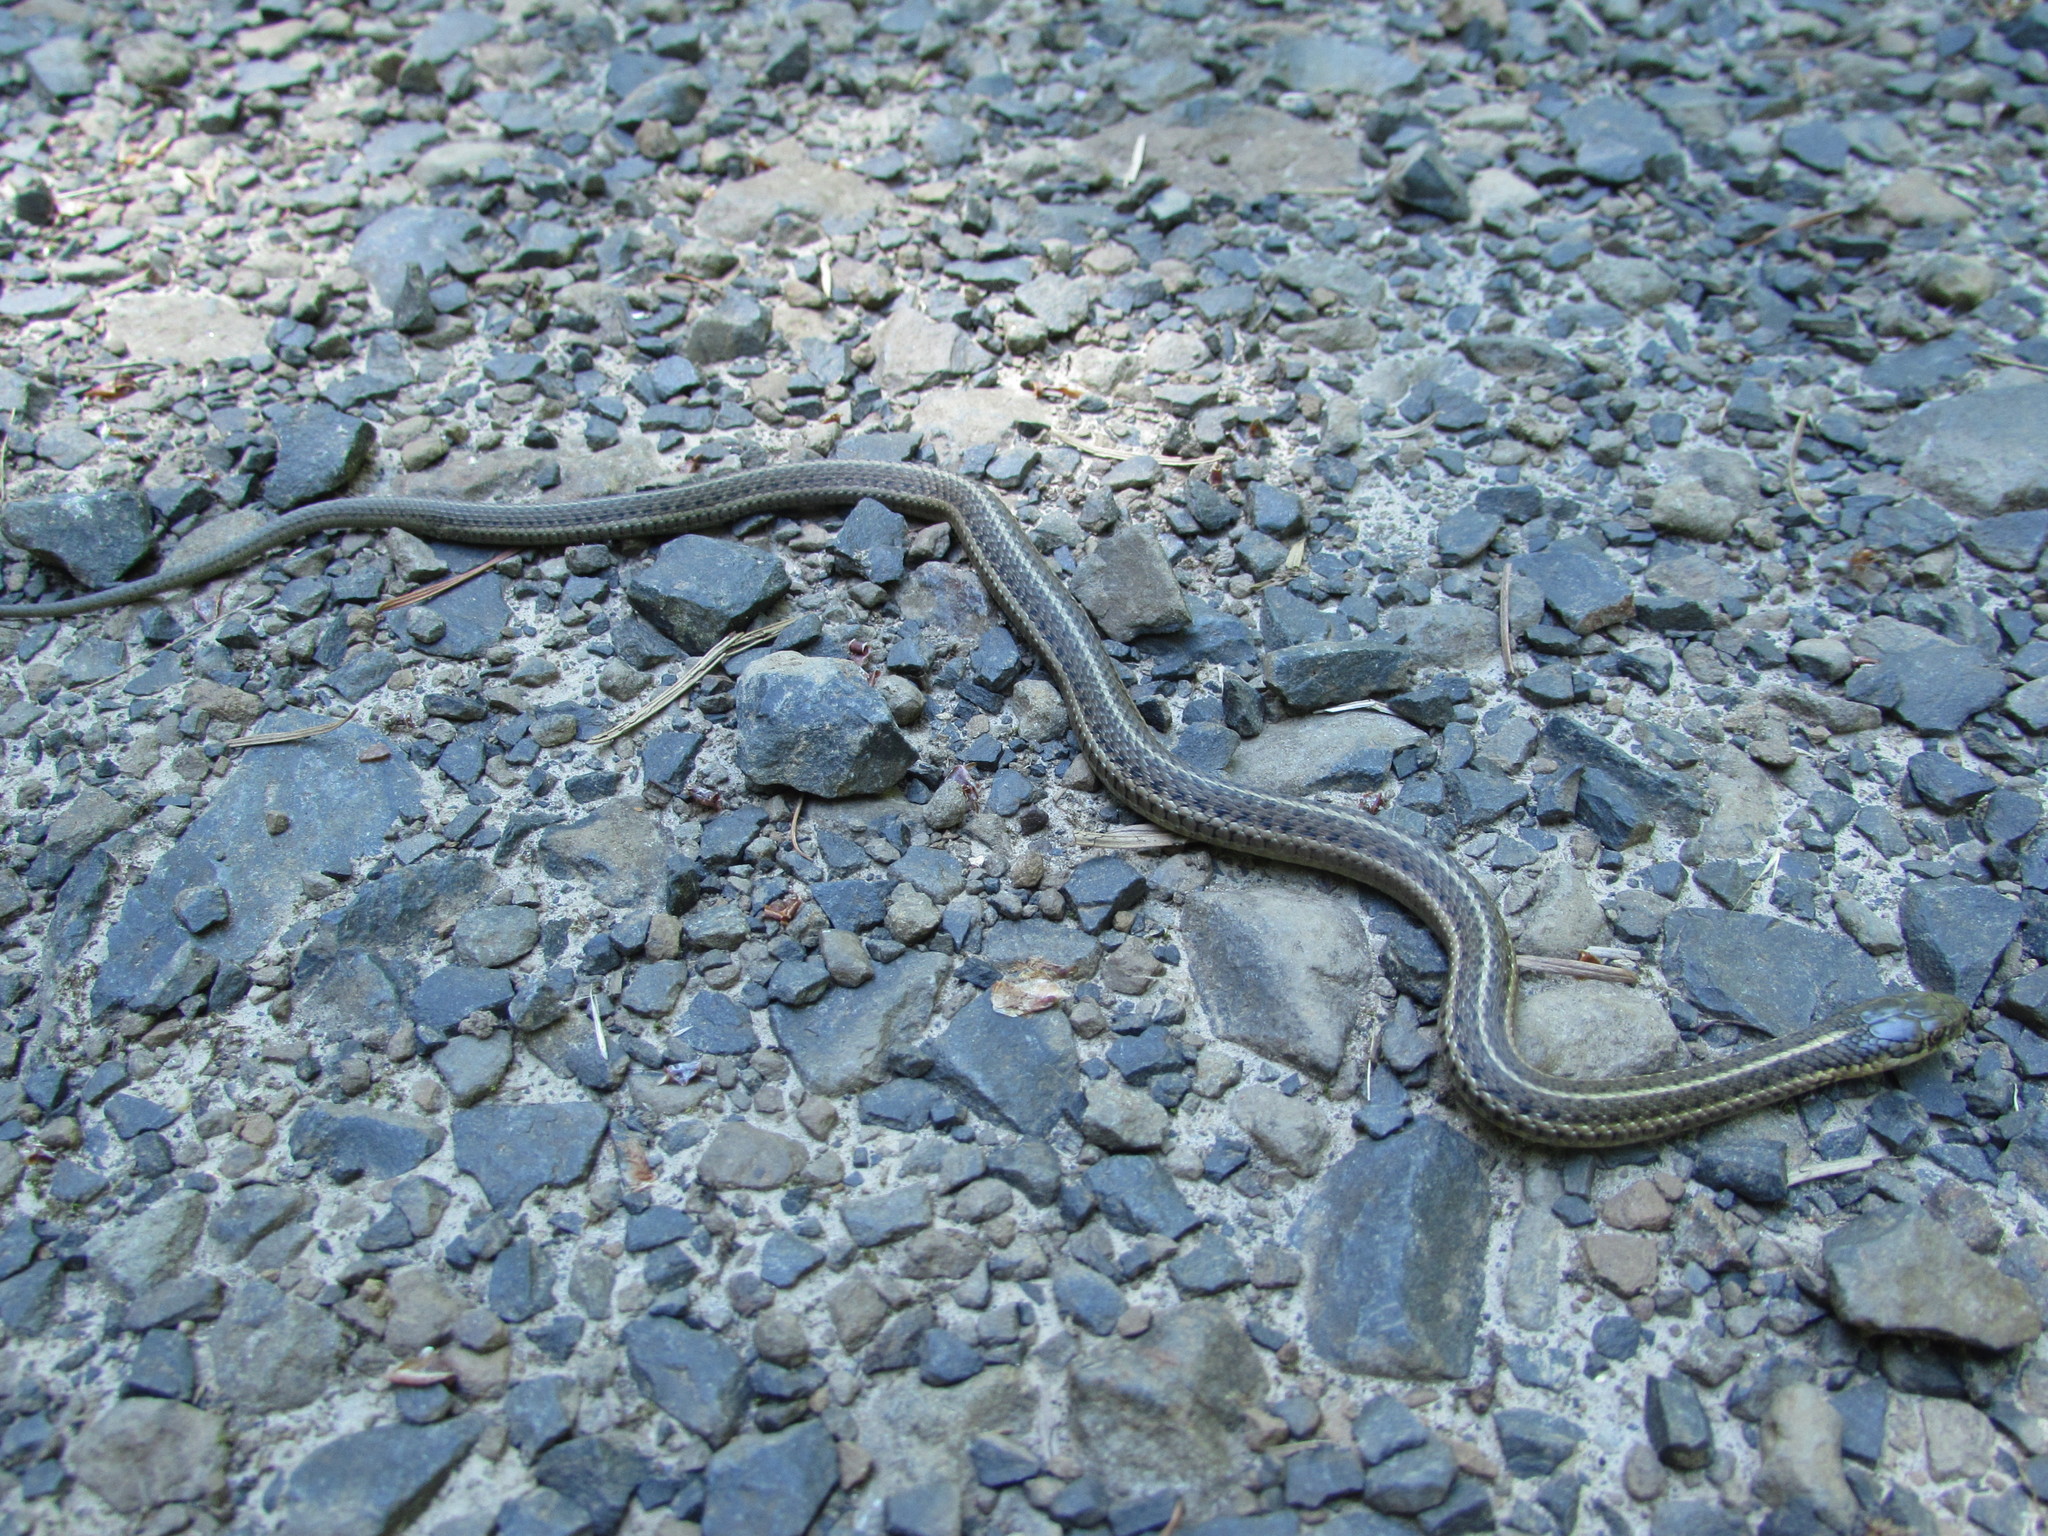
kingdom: Animalia
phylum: Chordata
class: Squamata
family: Colubridae
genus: Thamnophis
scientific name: Thamnophis ordinoides
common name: Northwestern garter snake
